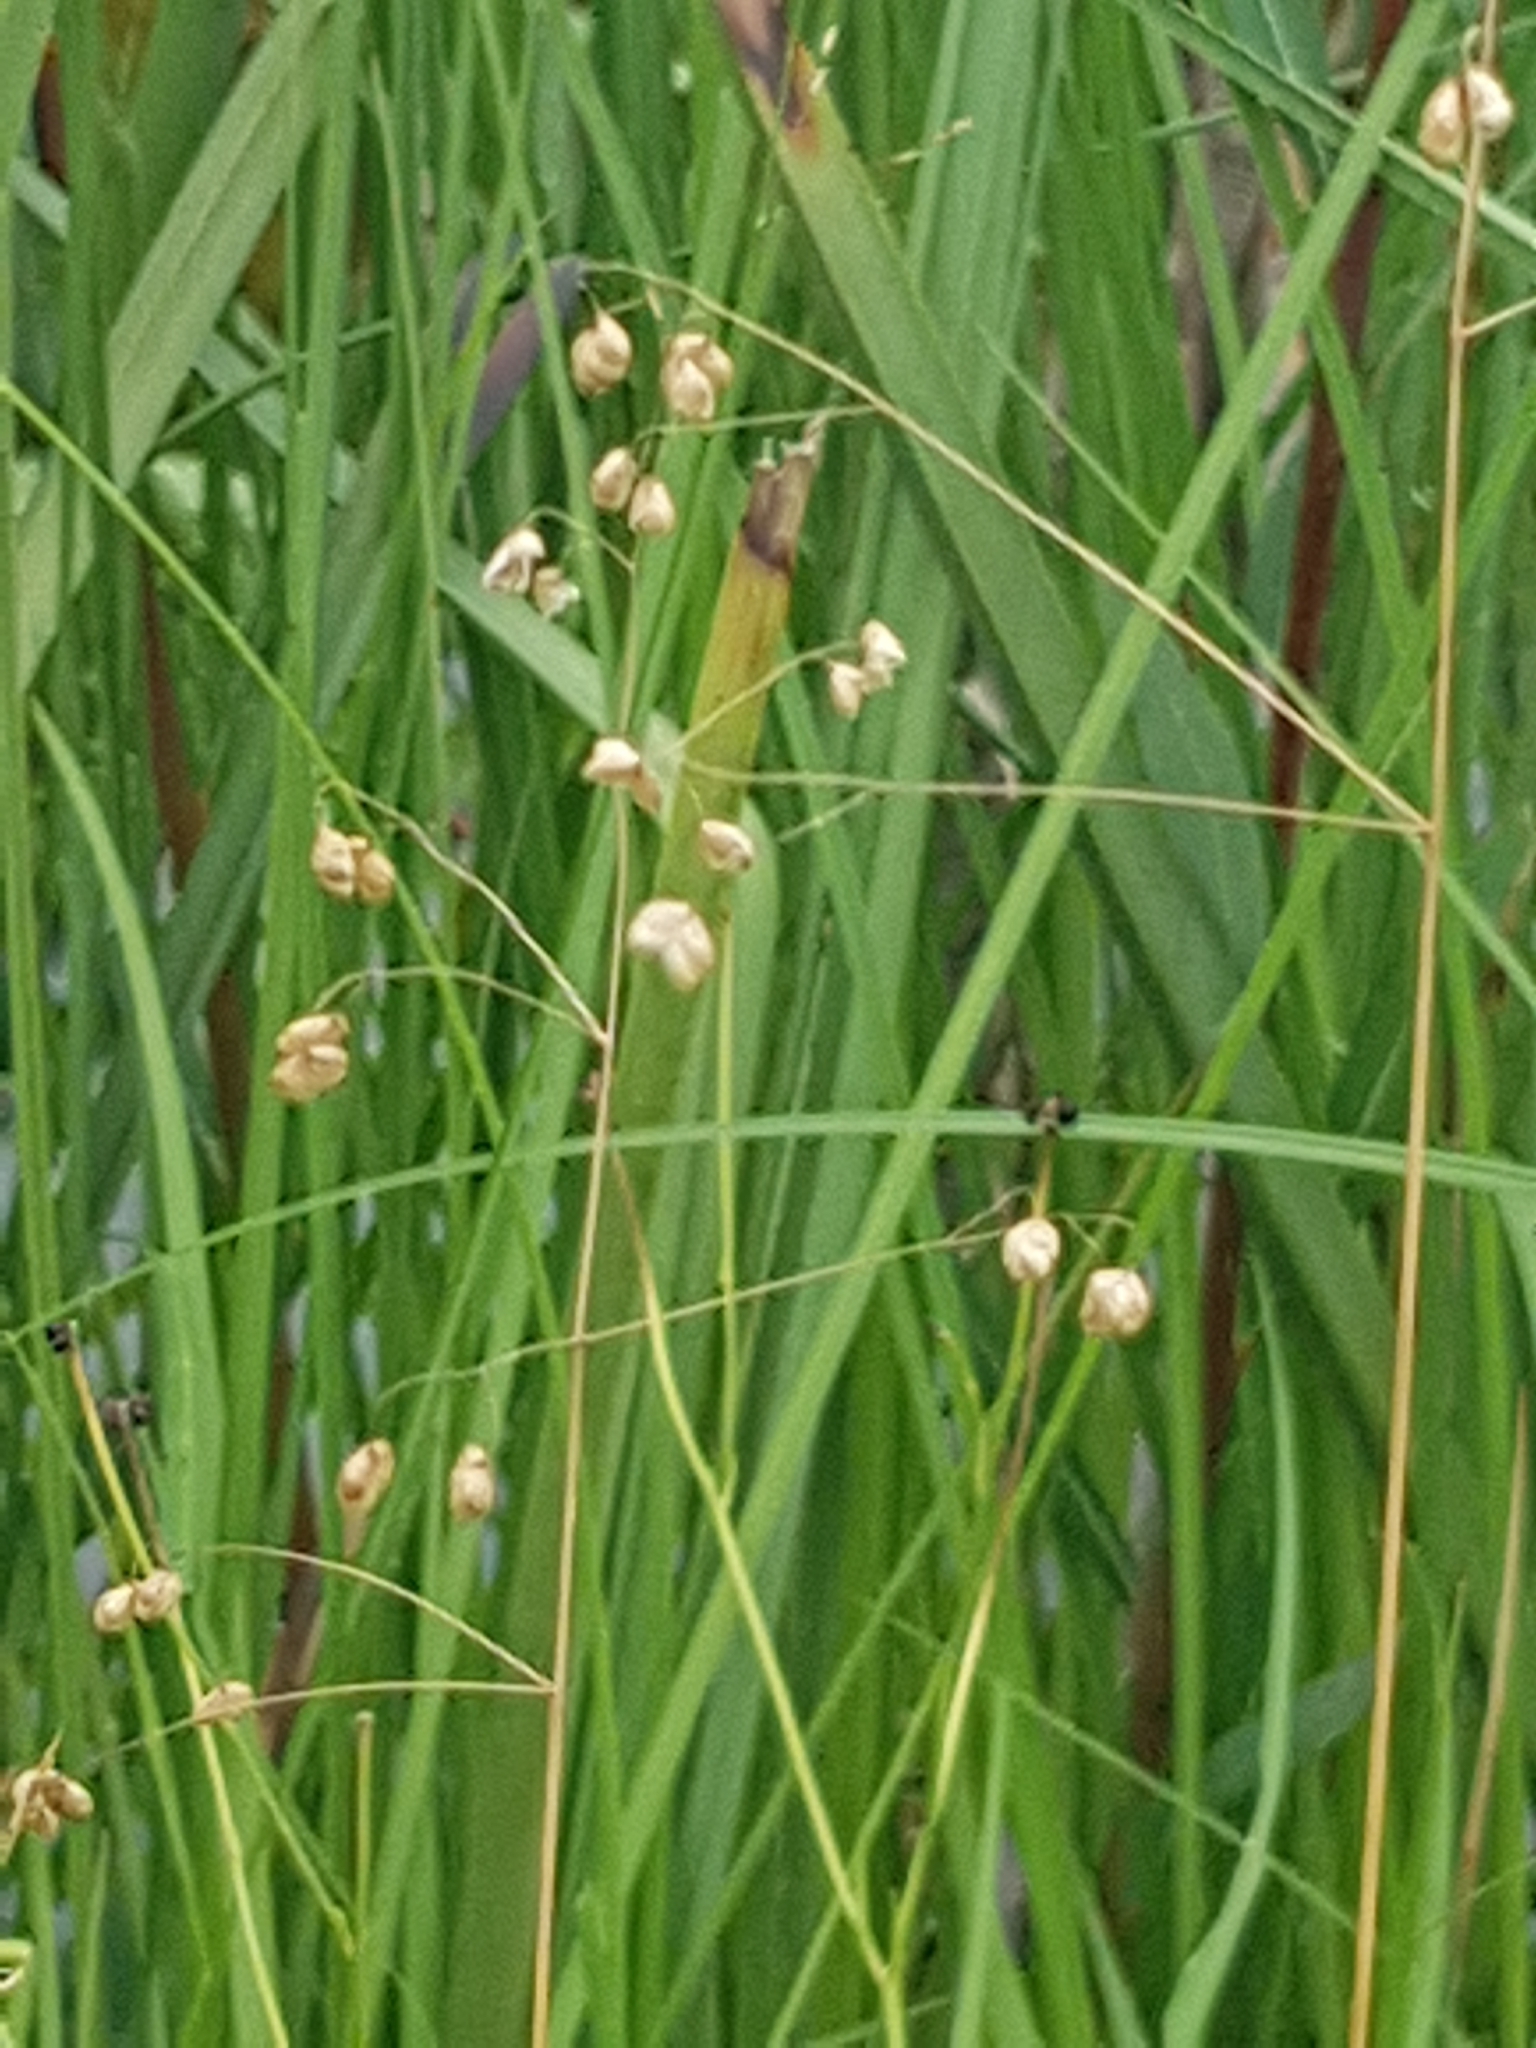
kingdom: Plantae
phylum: Tracheophyta
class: Liliopsida
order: Poales
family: Poaceae
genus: Briza
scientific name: Briza media
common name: Quaking grass
